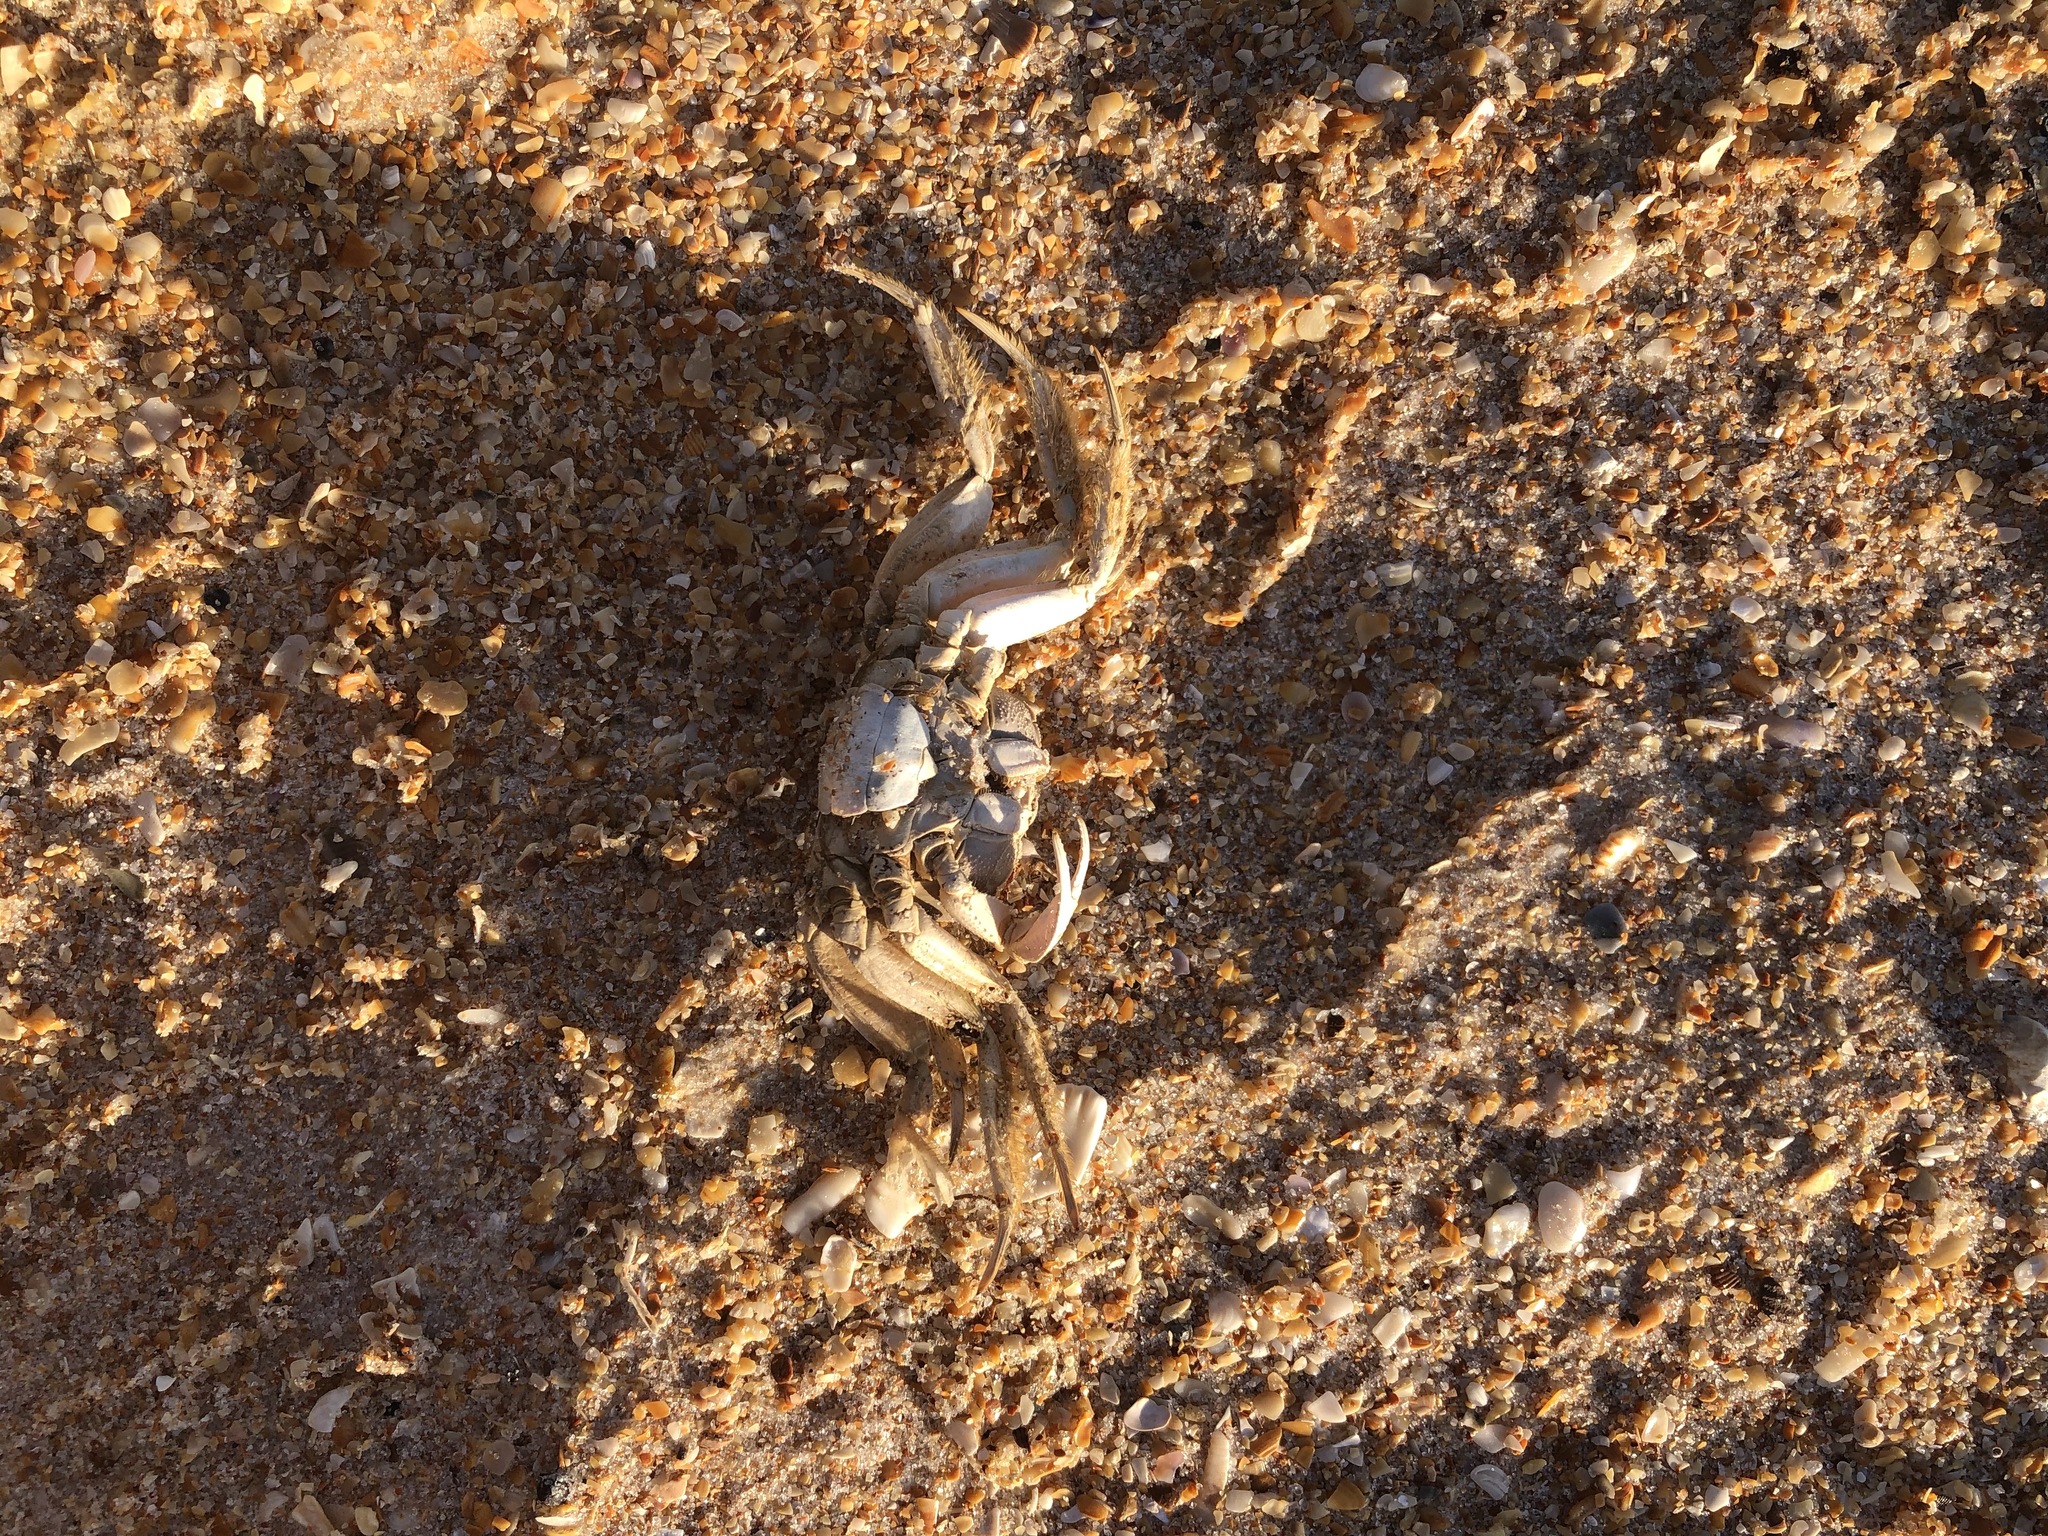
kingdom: Animalia
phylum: Arthropoda
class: Malacostraca
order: Decapoda
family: Ocypodidae
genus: Ocypode
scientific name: Ocypode quadrata
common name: Ghost crab
